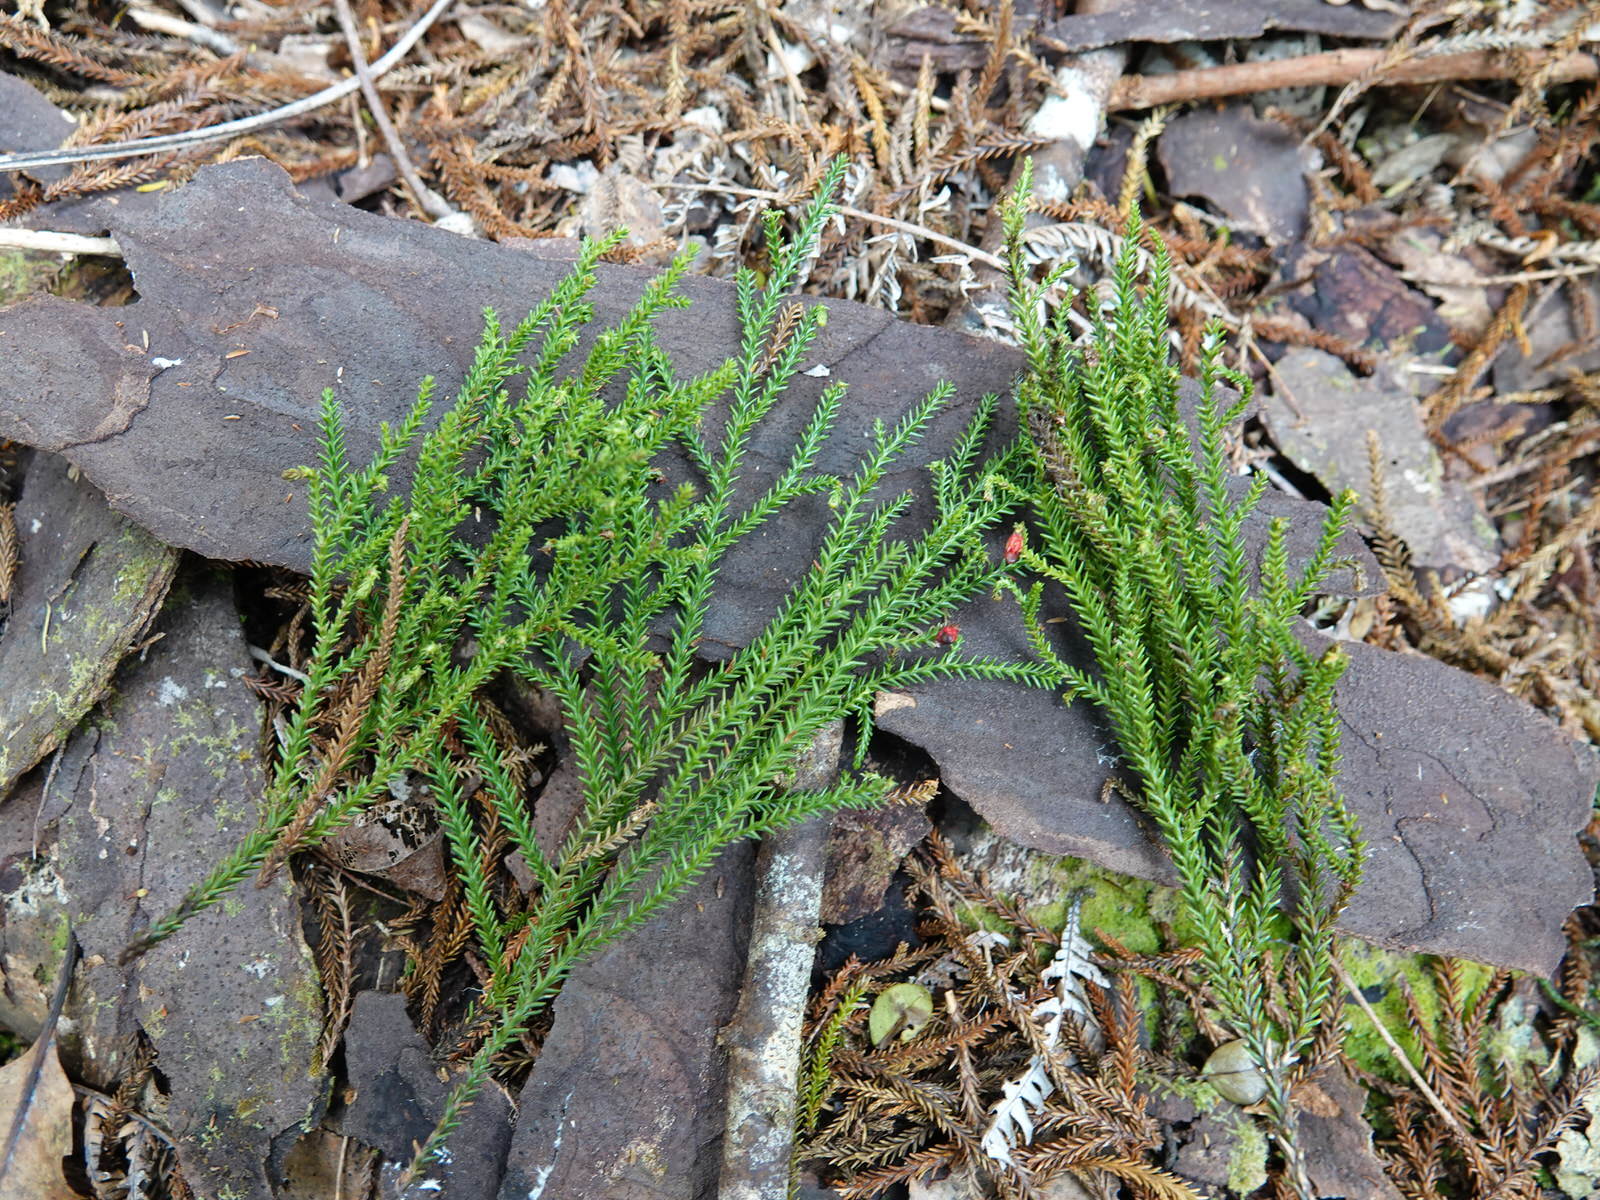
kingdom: Plantae
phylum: Tracheophyta
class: Pinopsida
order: Pinales
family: Podocarpaceae
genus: Dacrydium
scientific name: Dacrydium cupressinum
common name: Red pine
